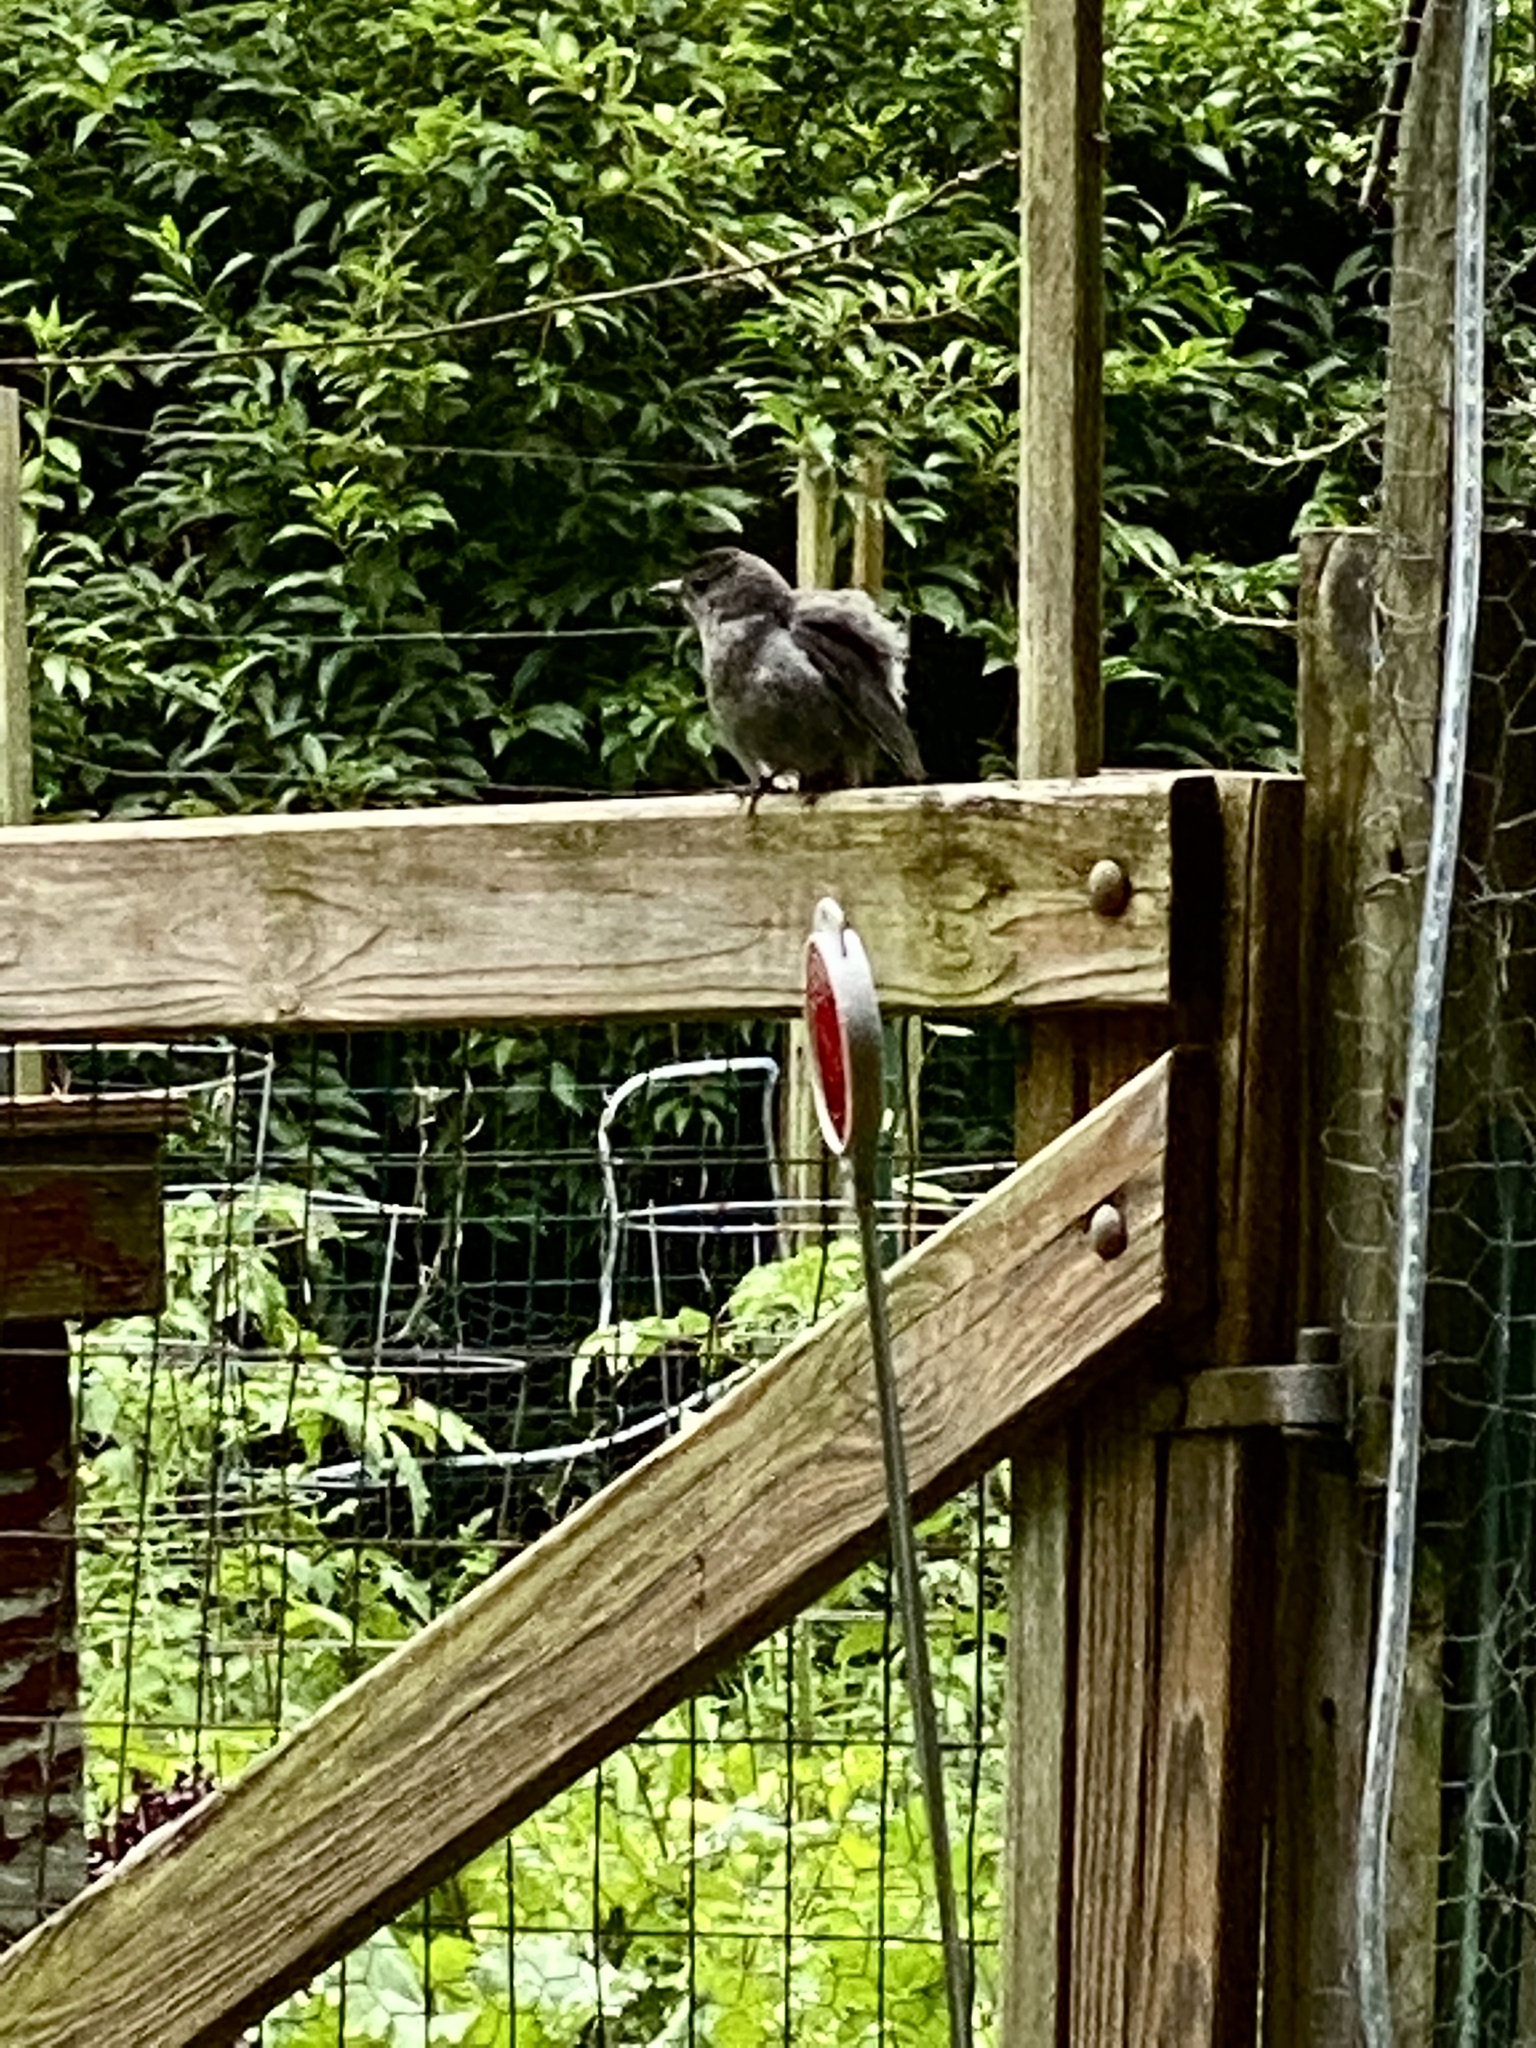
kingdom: Animalia
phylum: Chordata
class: Aves
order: Passeriformes
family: Mimidae
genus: Dumetella
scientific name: Dumetella carolinensis
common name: Gray catbird
